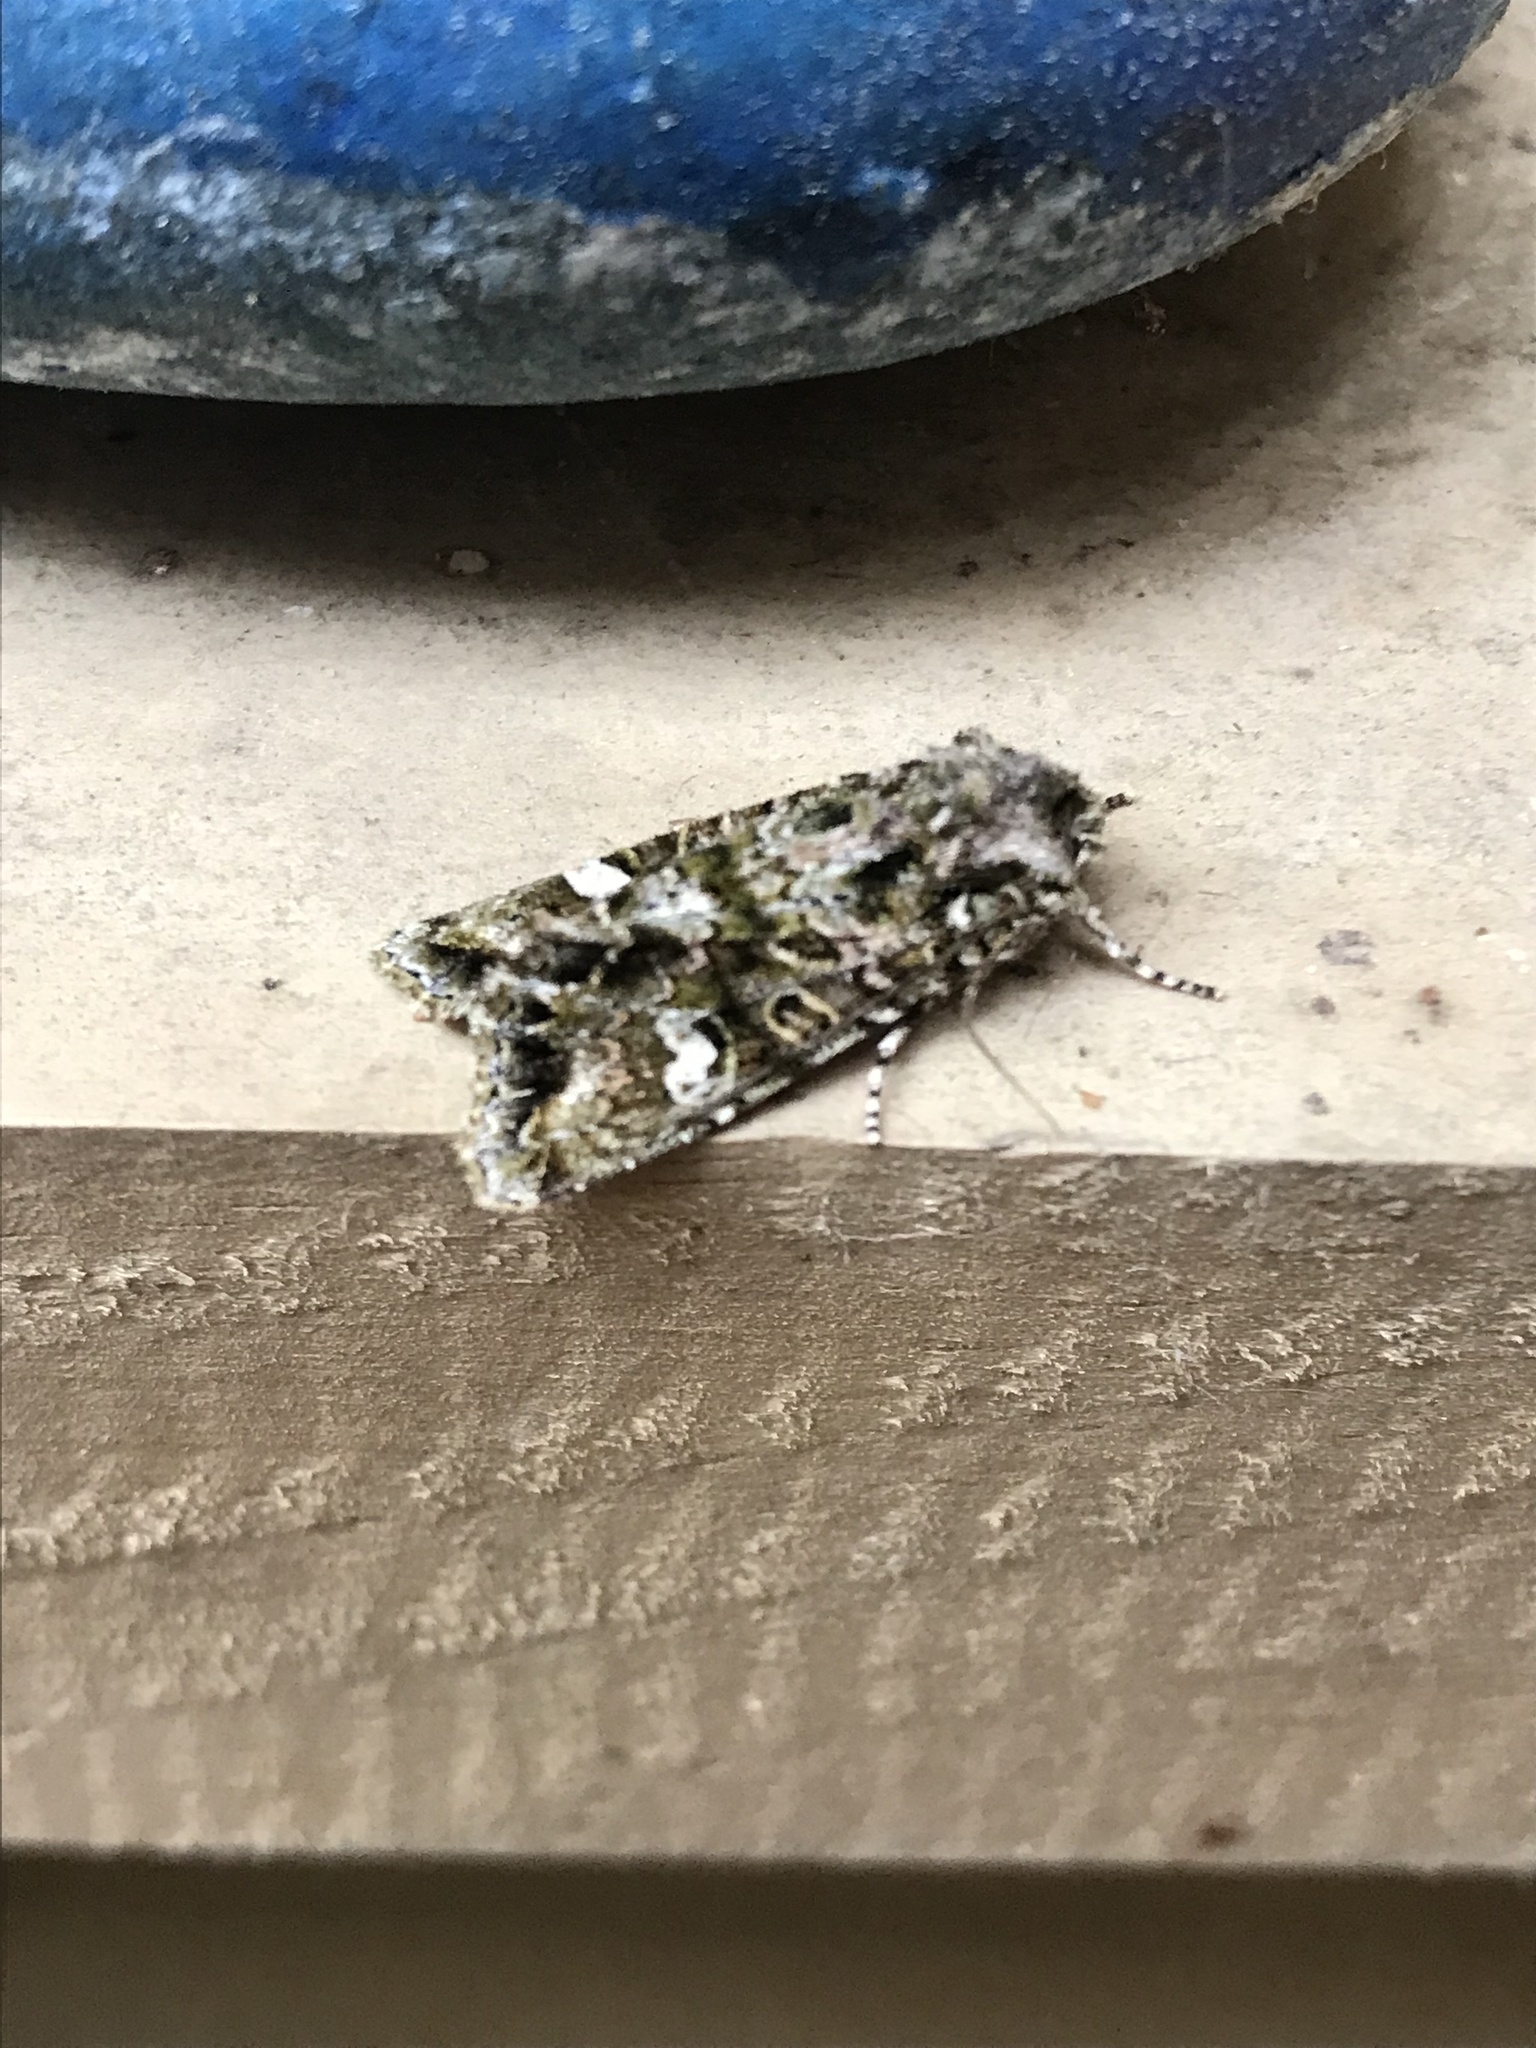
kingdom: Animalia
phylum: Arthropoda
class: Insecta
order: Lepidoptera
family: Noctuidae
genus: Ichneutica
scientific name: Ichneutica
